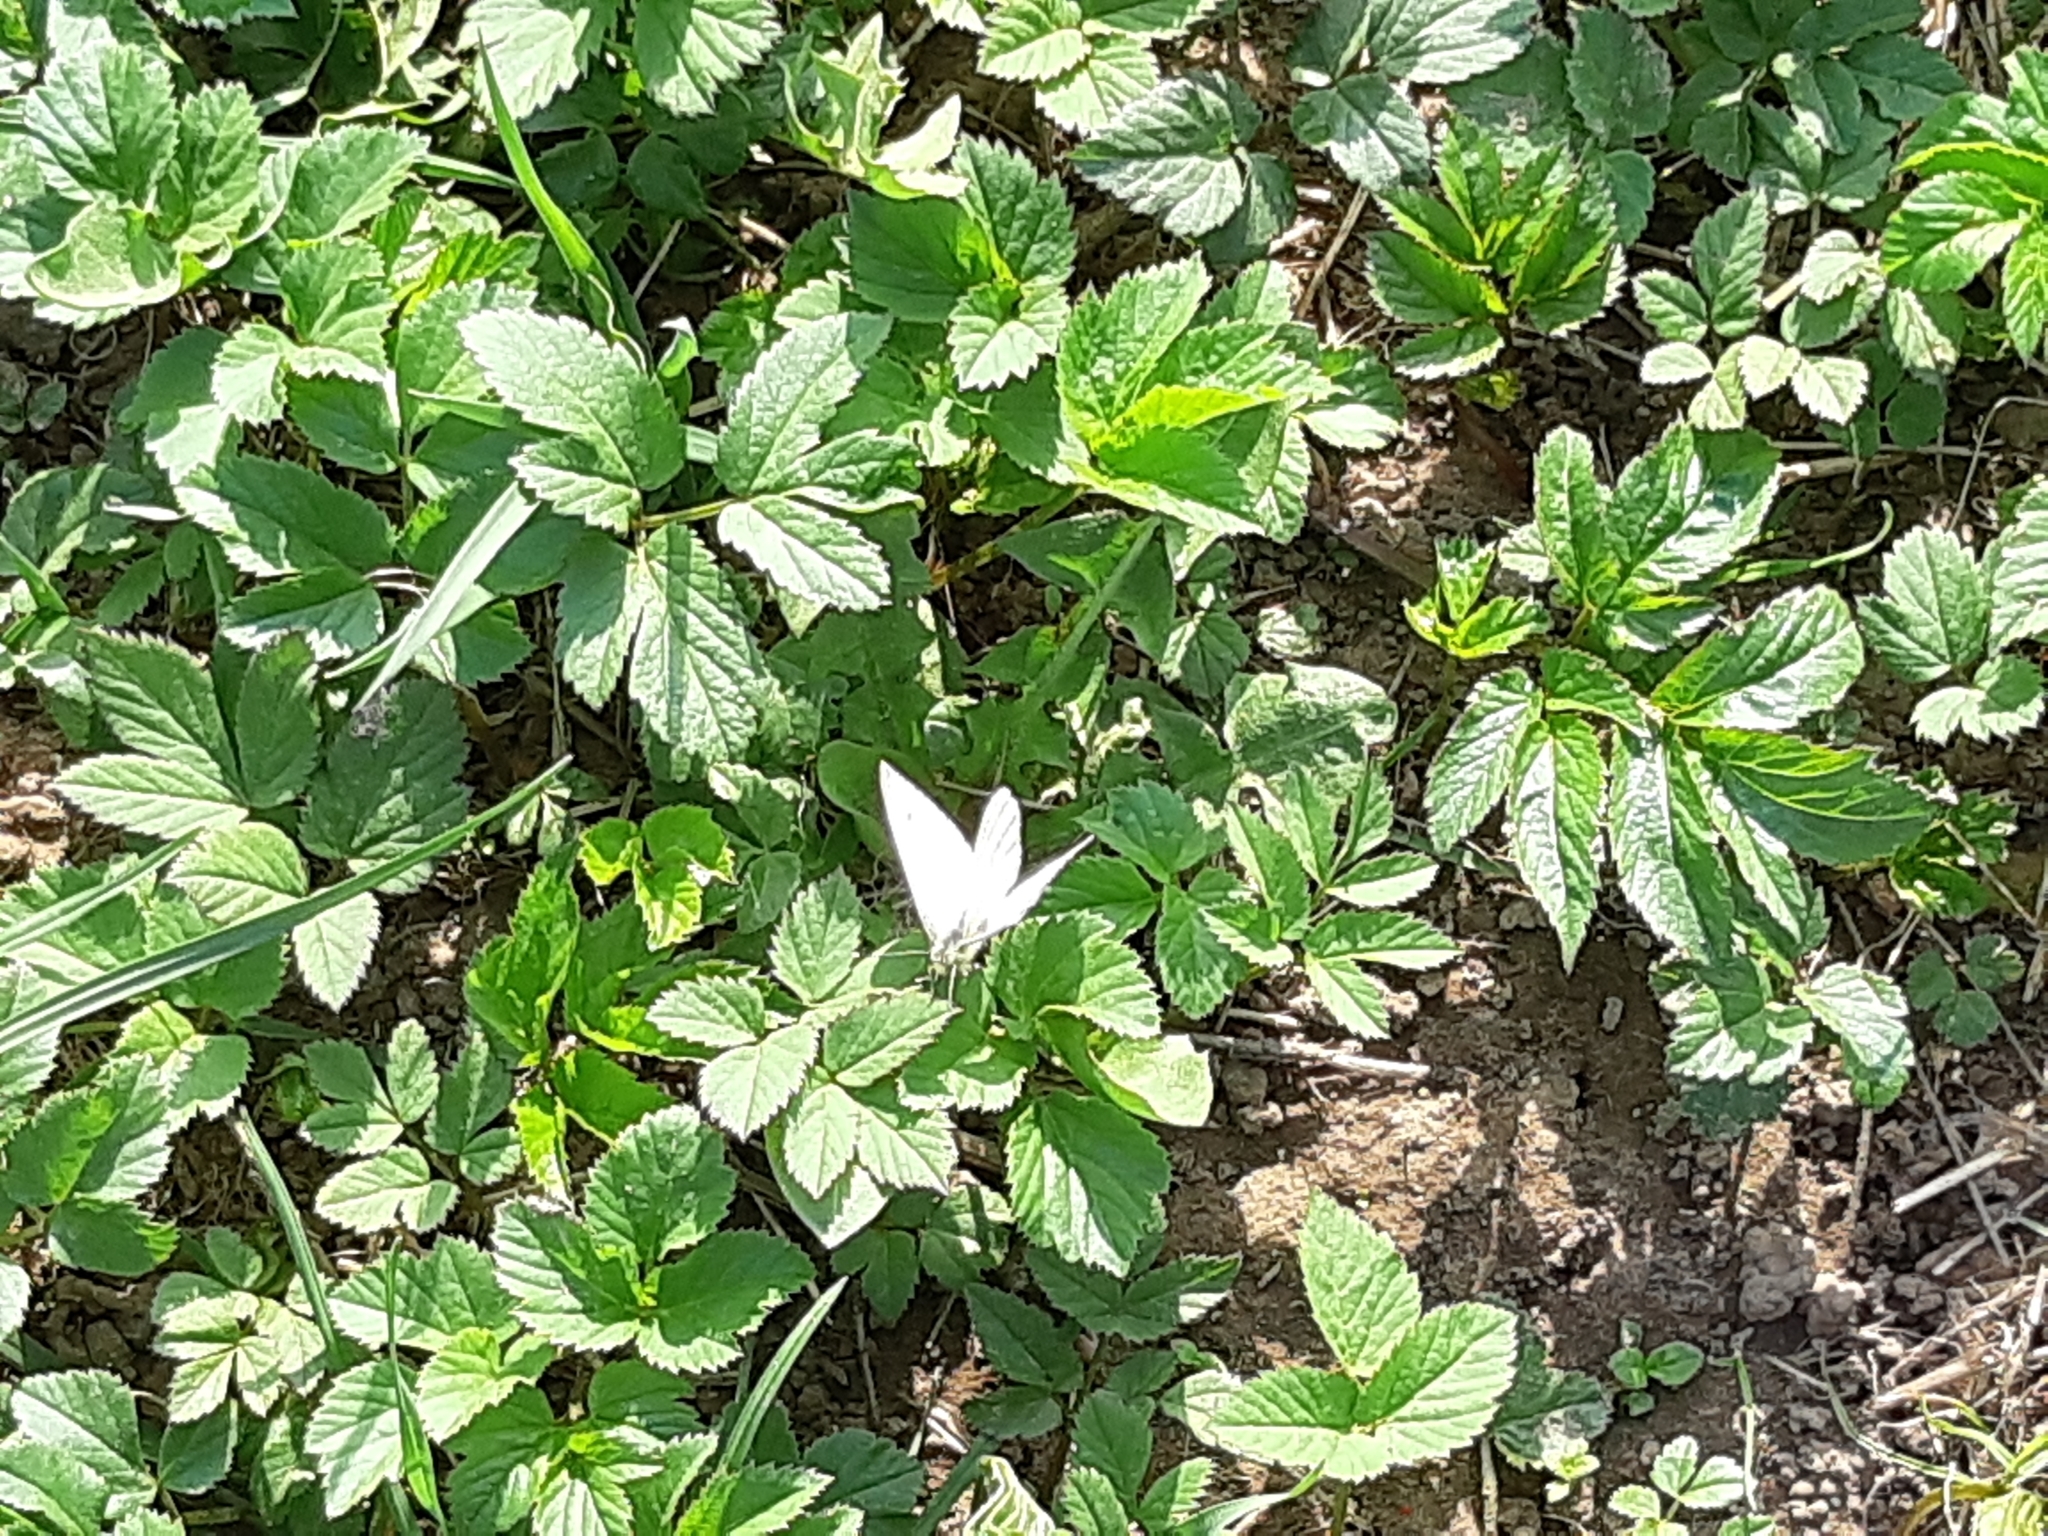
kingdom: Animalia
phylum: Arthropoda
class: Insecta
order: Lepidoptera
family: Pieridae
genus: Pieris
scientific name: Pieris napi
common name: Green-veined white
